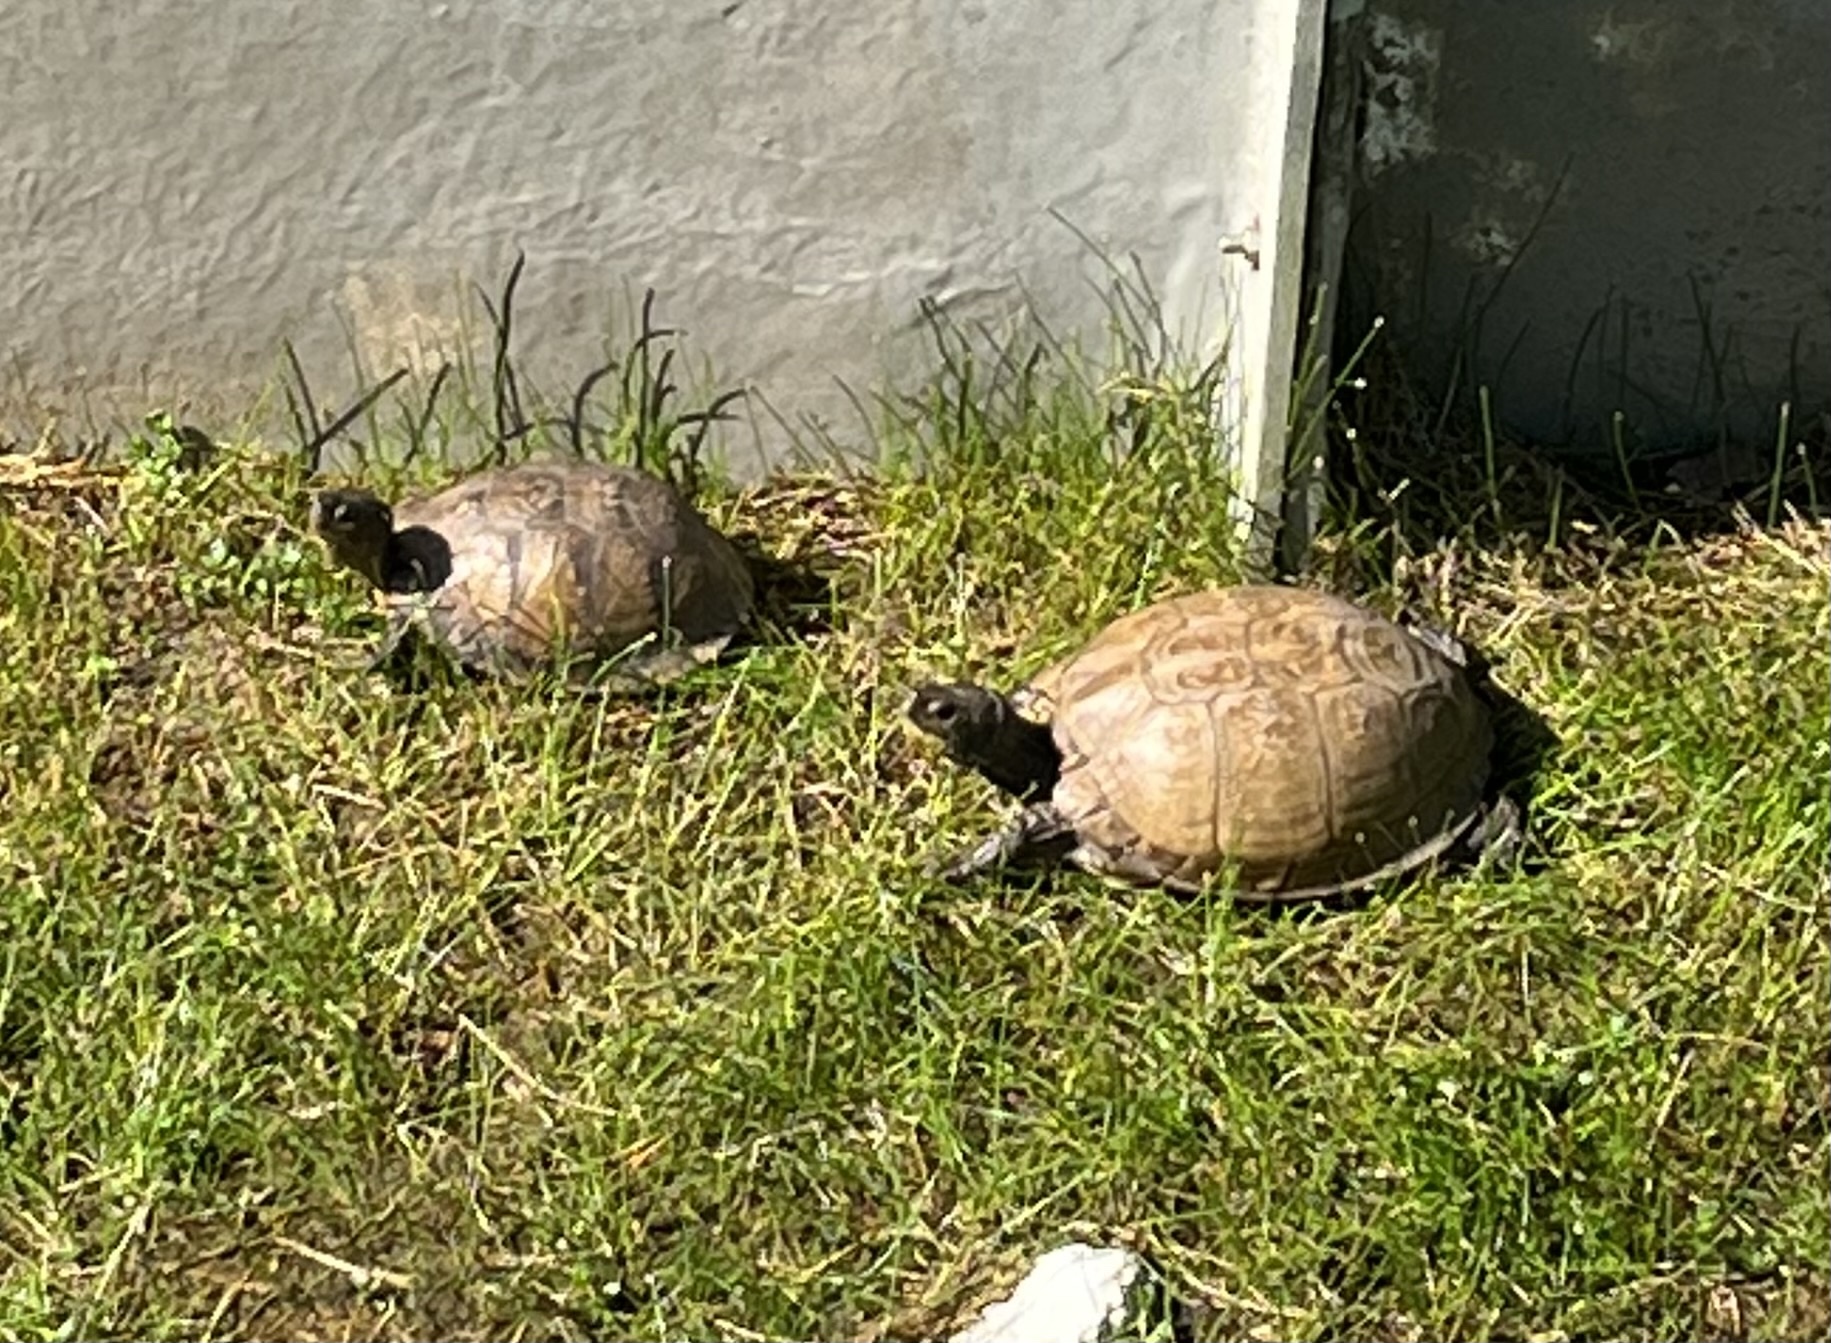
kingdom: Animalia
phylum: Chordata
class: Testudines
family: Emydidae
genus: Terrapene
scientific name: Terrapene carolina
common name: Common box turtle
